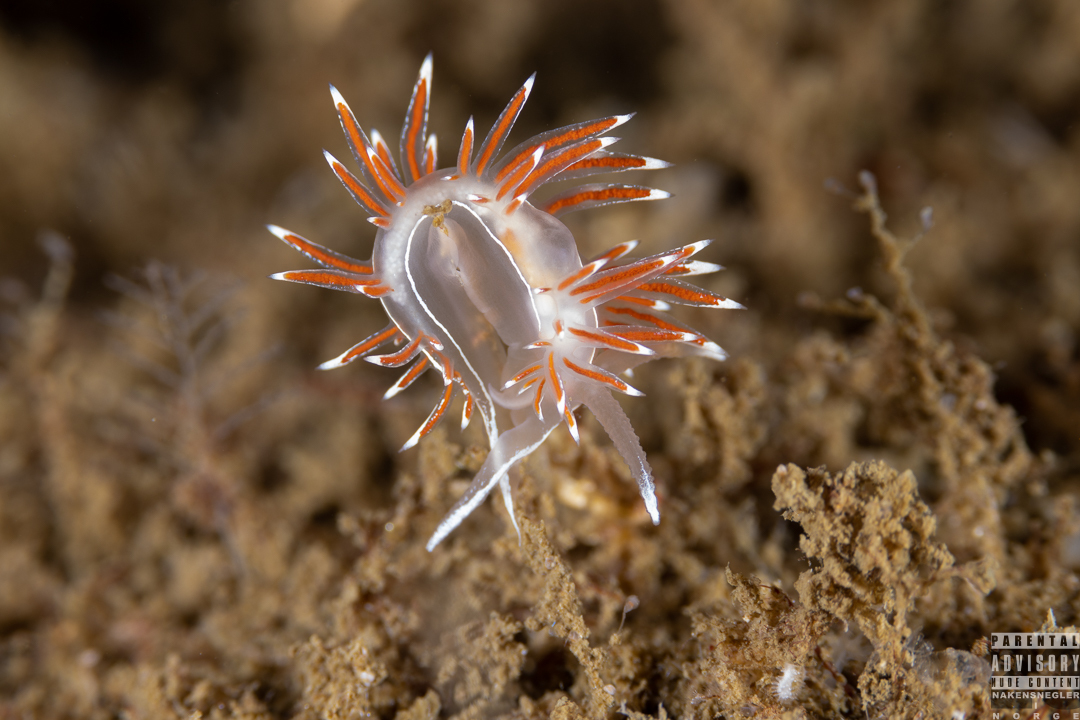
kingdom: Animalia
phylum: Mollusca
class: Gastropoda
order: Nudibranchia
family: Coryphellidae
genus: Coryphella
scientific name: Coryphella lineata
